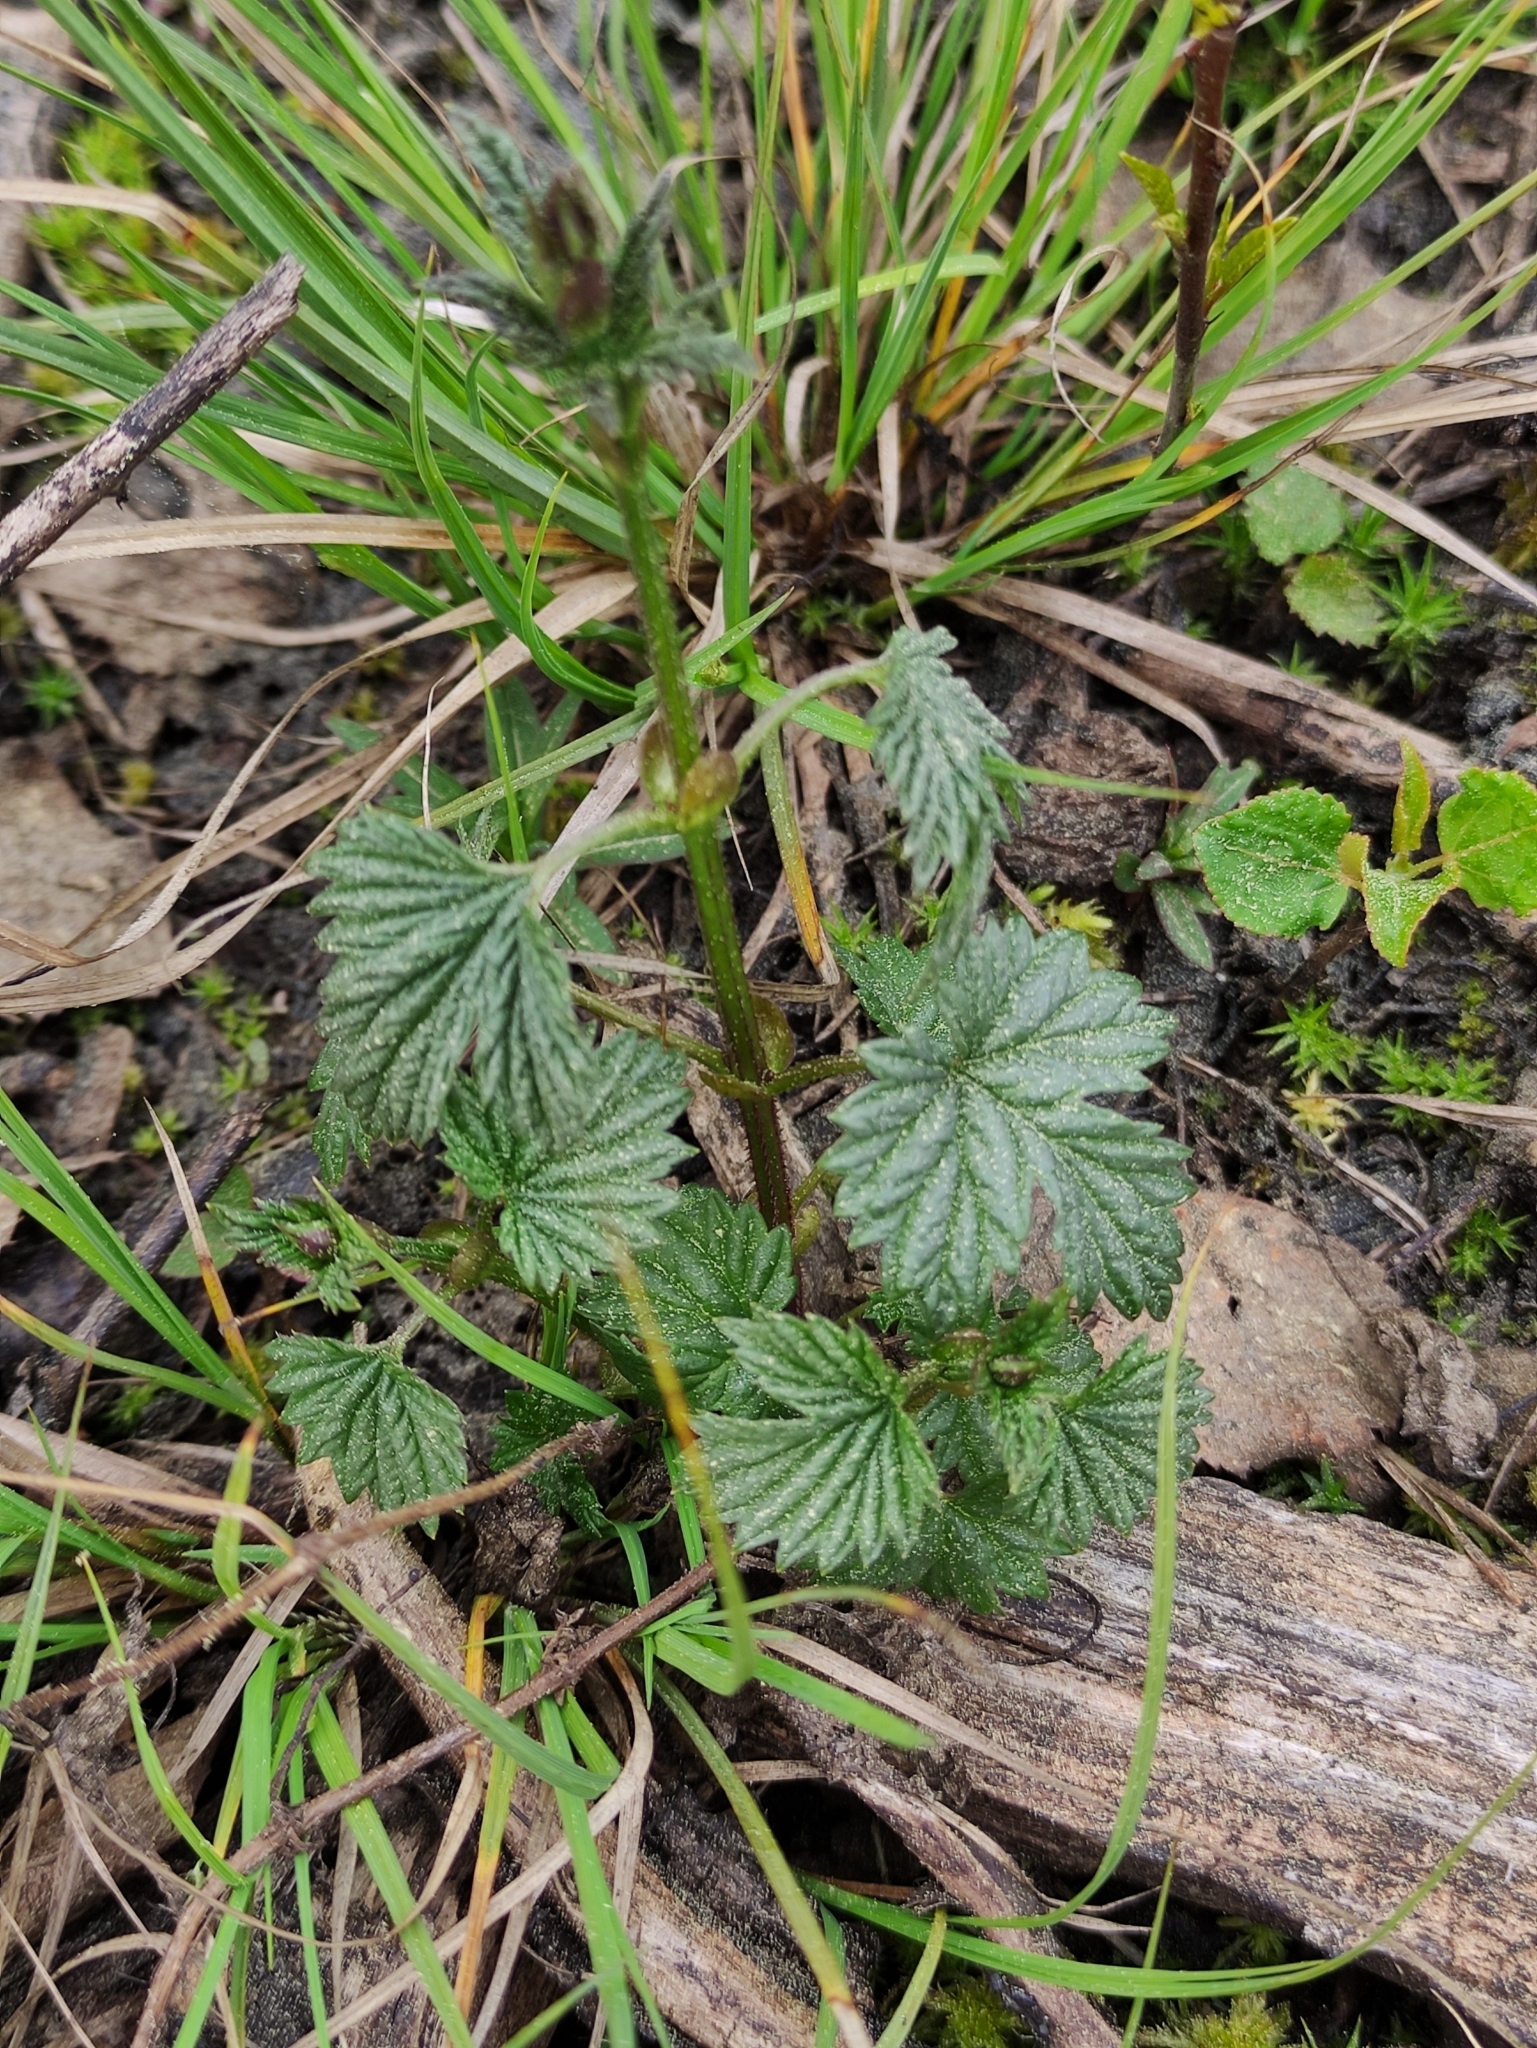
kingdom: Plantae
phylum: Tracheophyta
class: Magnoliopsida
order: Rosales
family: Cannabaceae
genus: Humulus
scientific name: Humulus lupulus
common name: Hop
